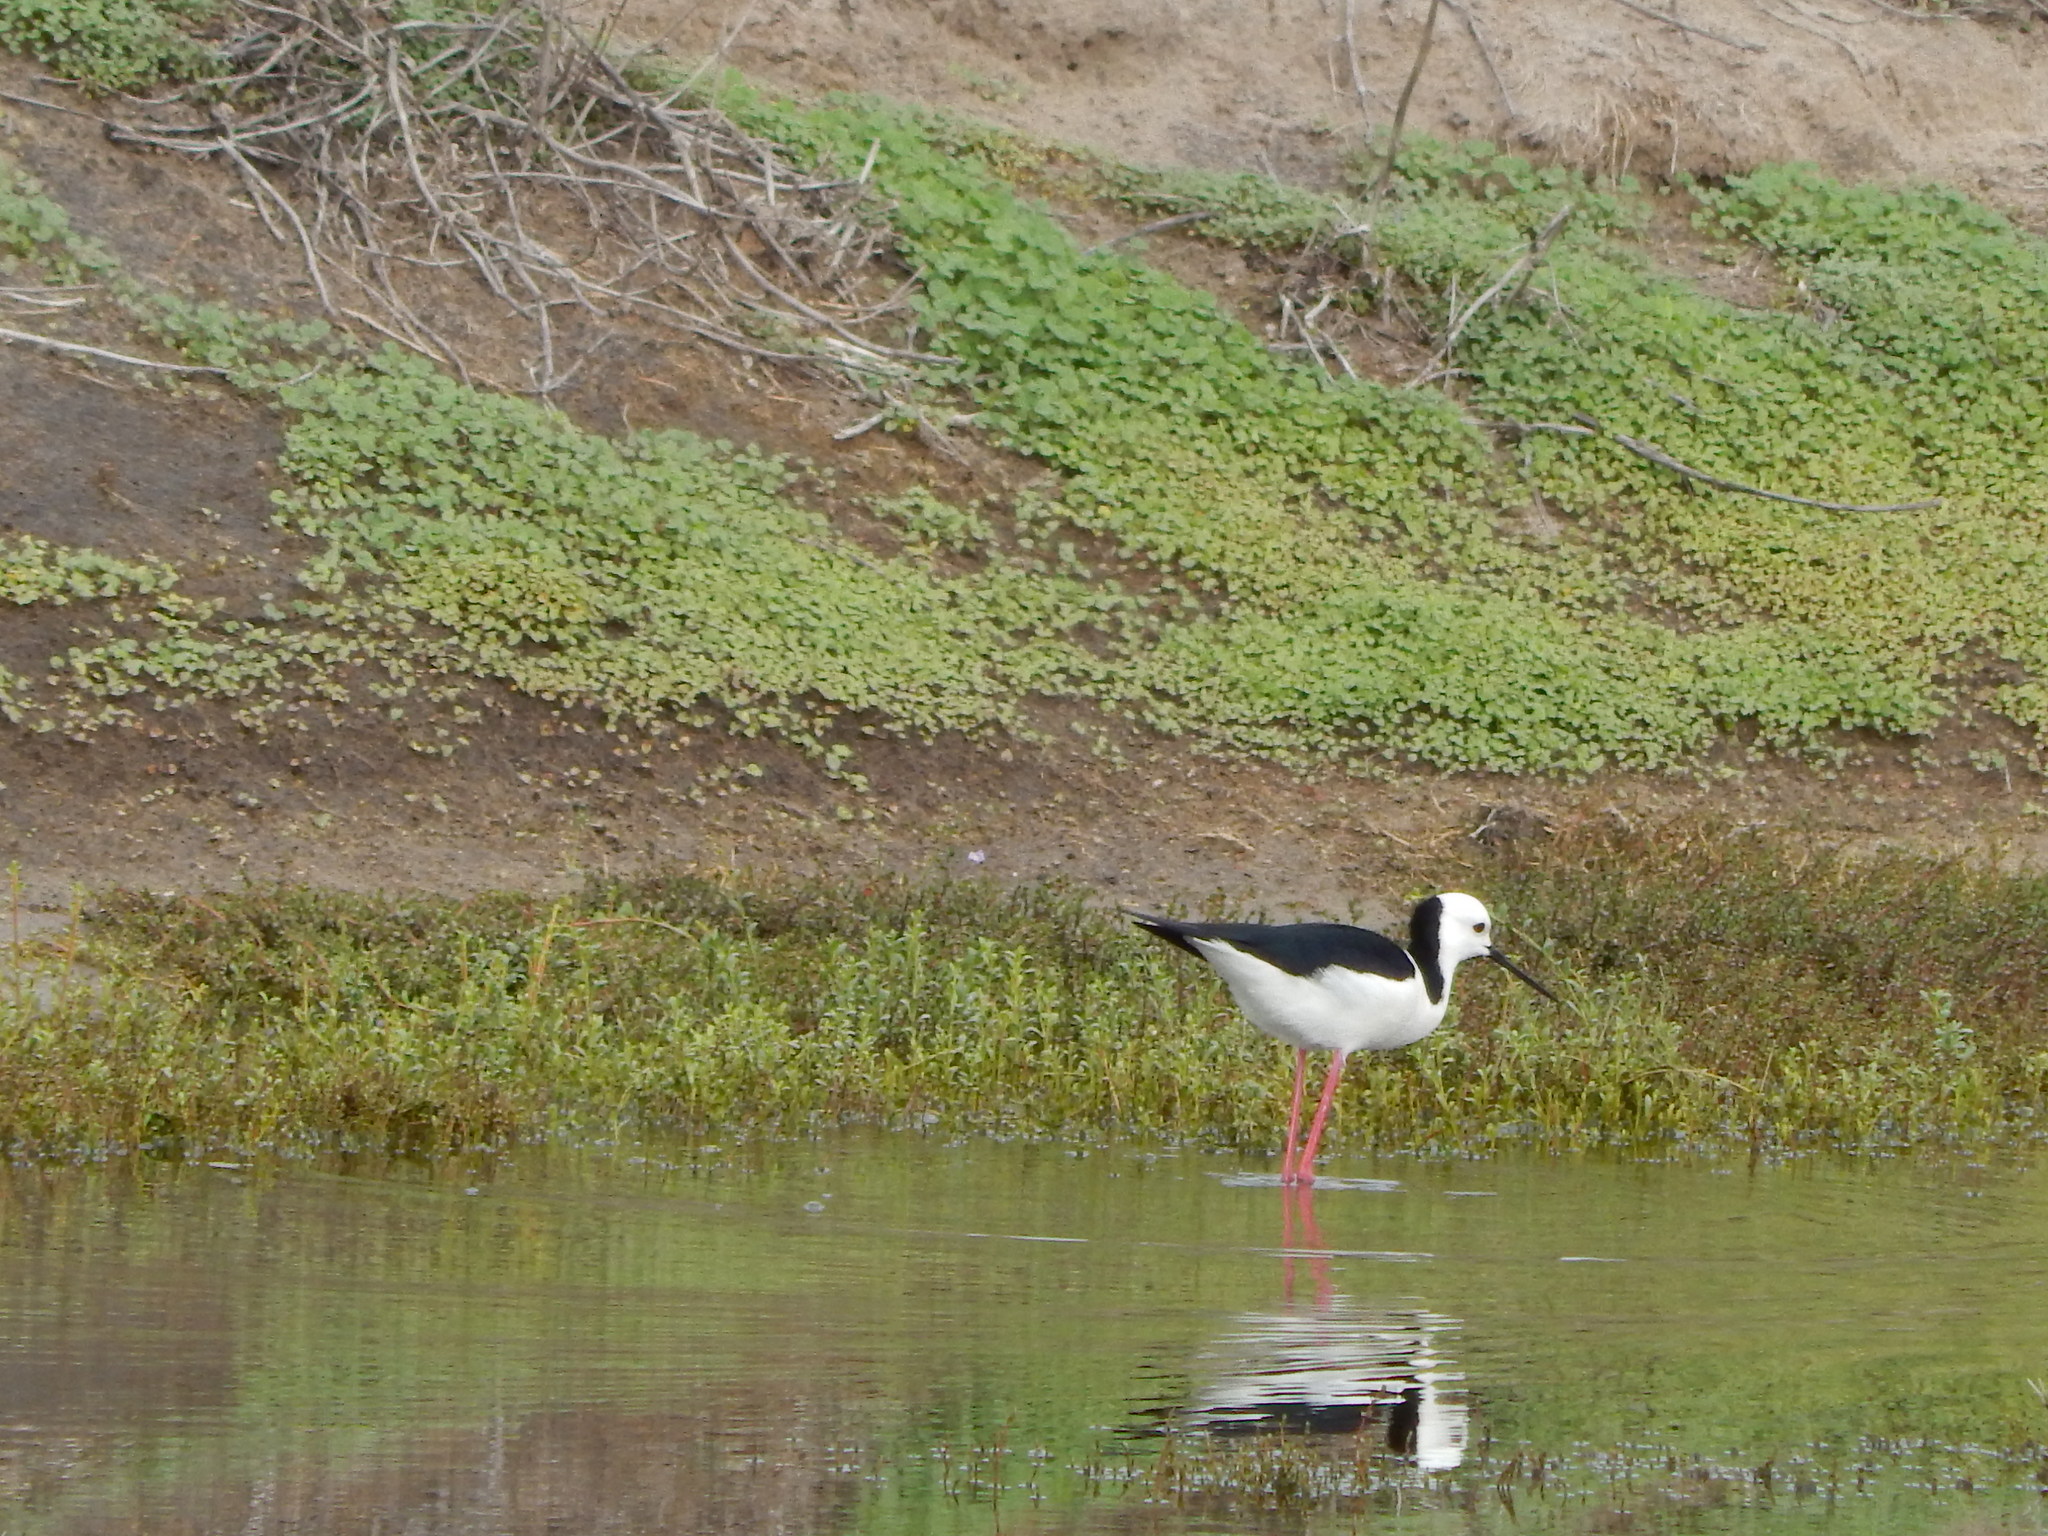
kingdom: Animalia
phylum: Chordata
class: Aves
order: Charadriiformes
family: Recurvirostridae
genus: Himantopus
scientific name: Himantopus leucocephalus
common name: White-headed stilt
